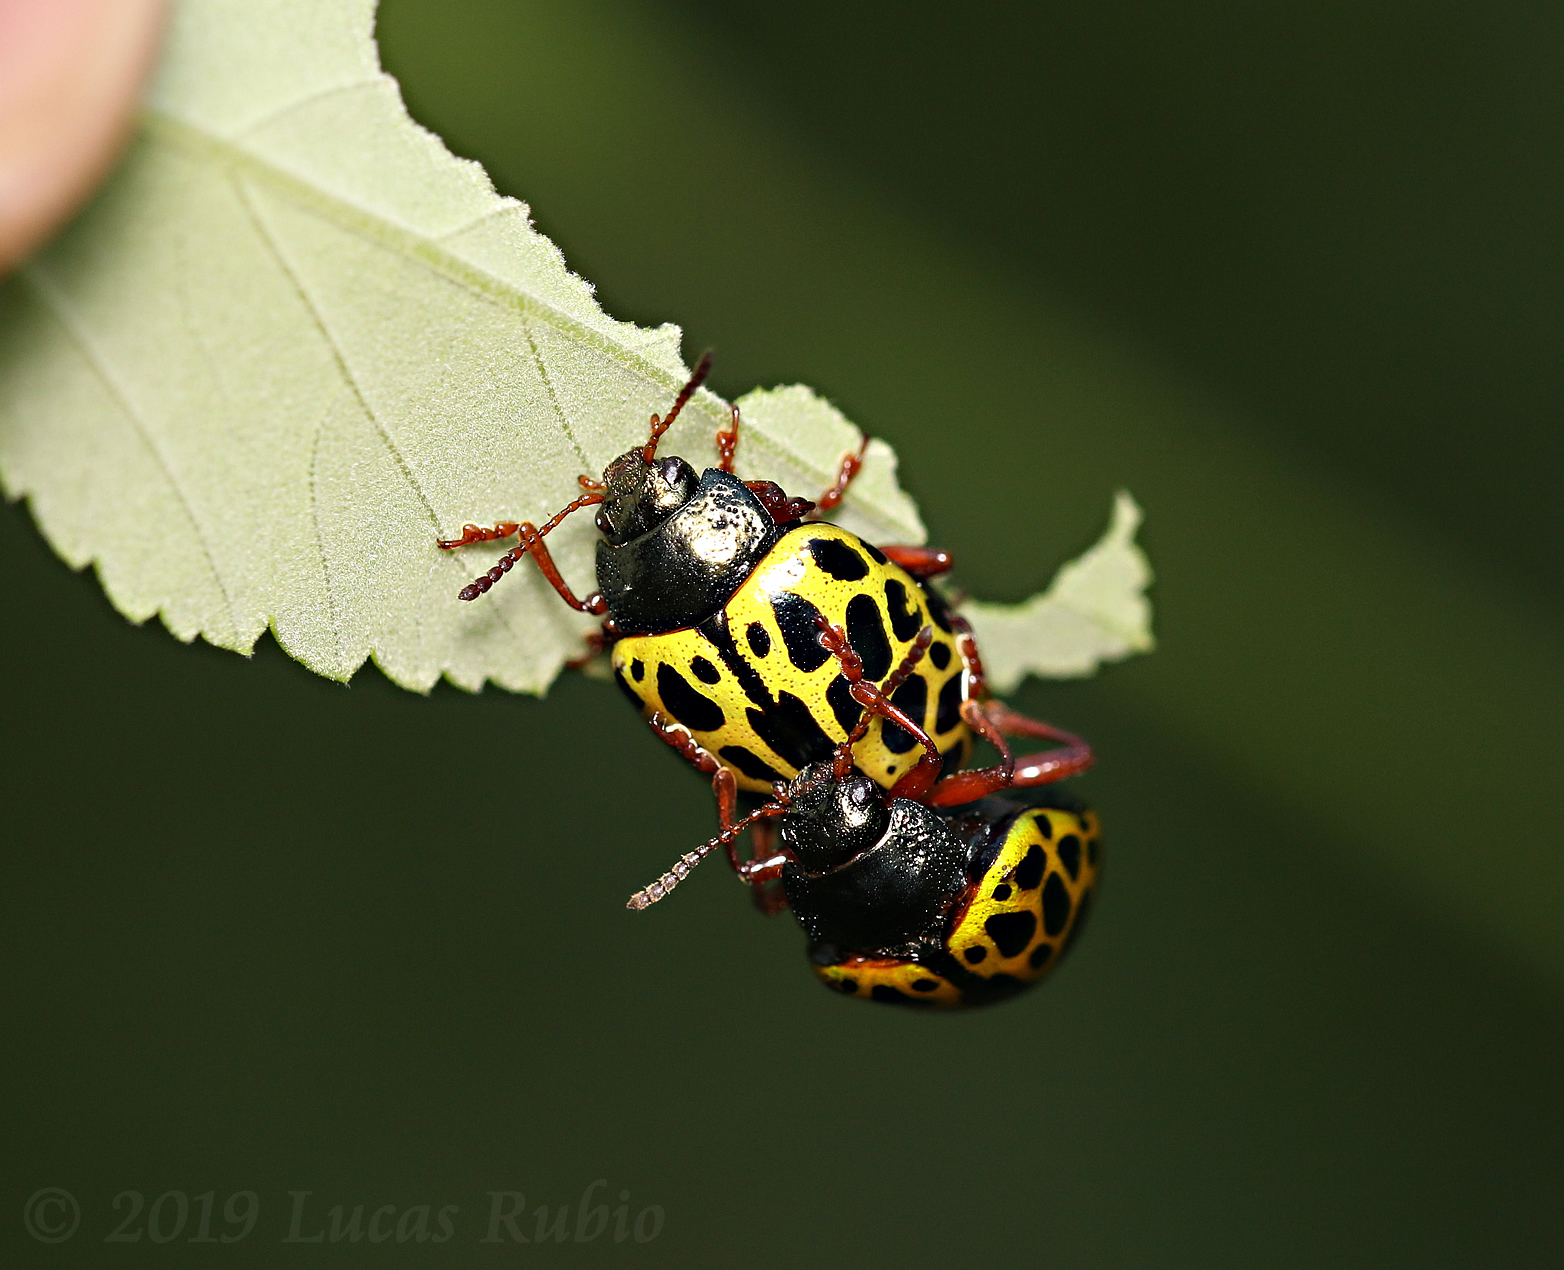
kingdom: Animalia
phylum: Arthropoda
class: Insecta
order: Coleoptera
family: Chrysomelidae
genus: Calligrapha
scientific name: Calligrapha polyspila
